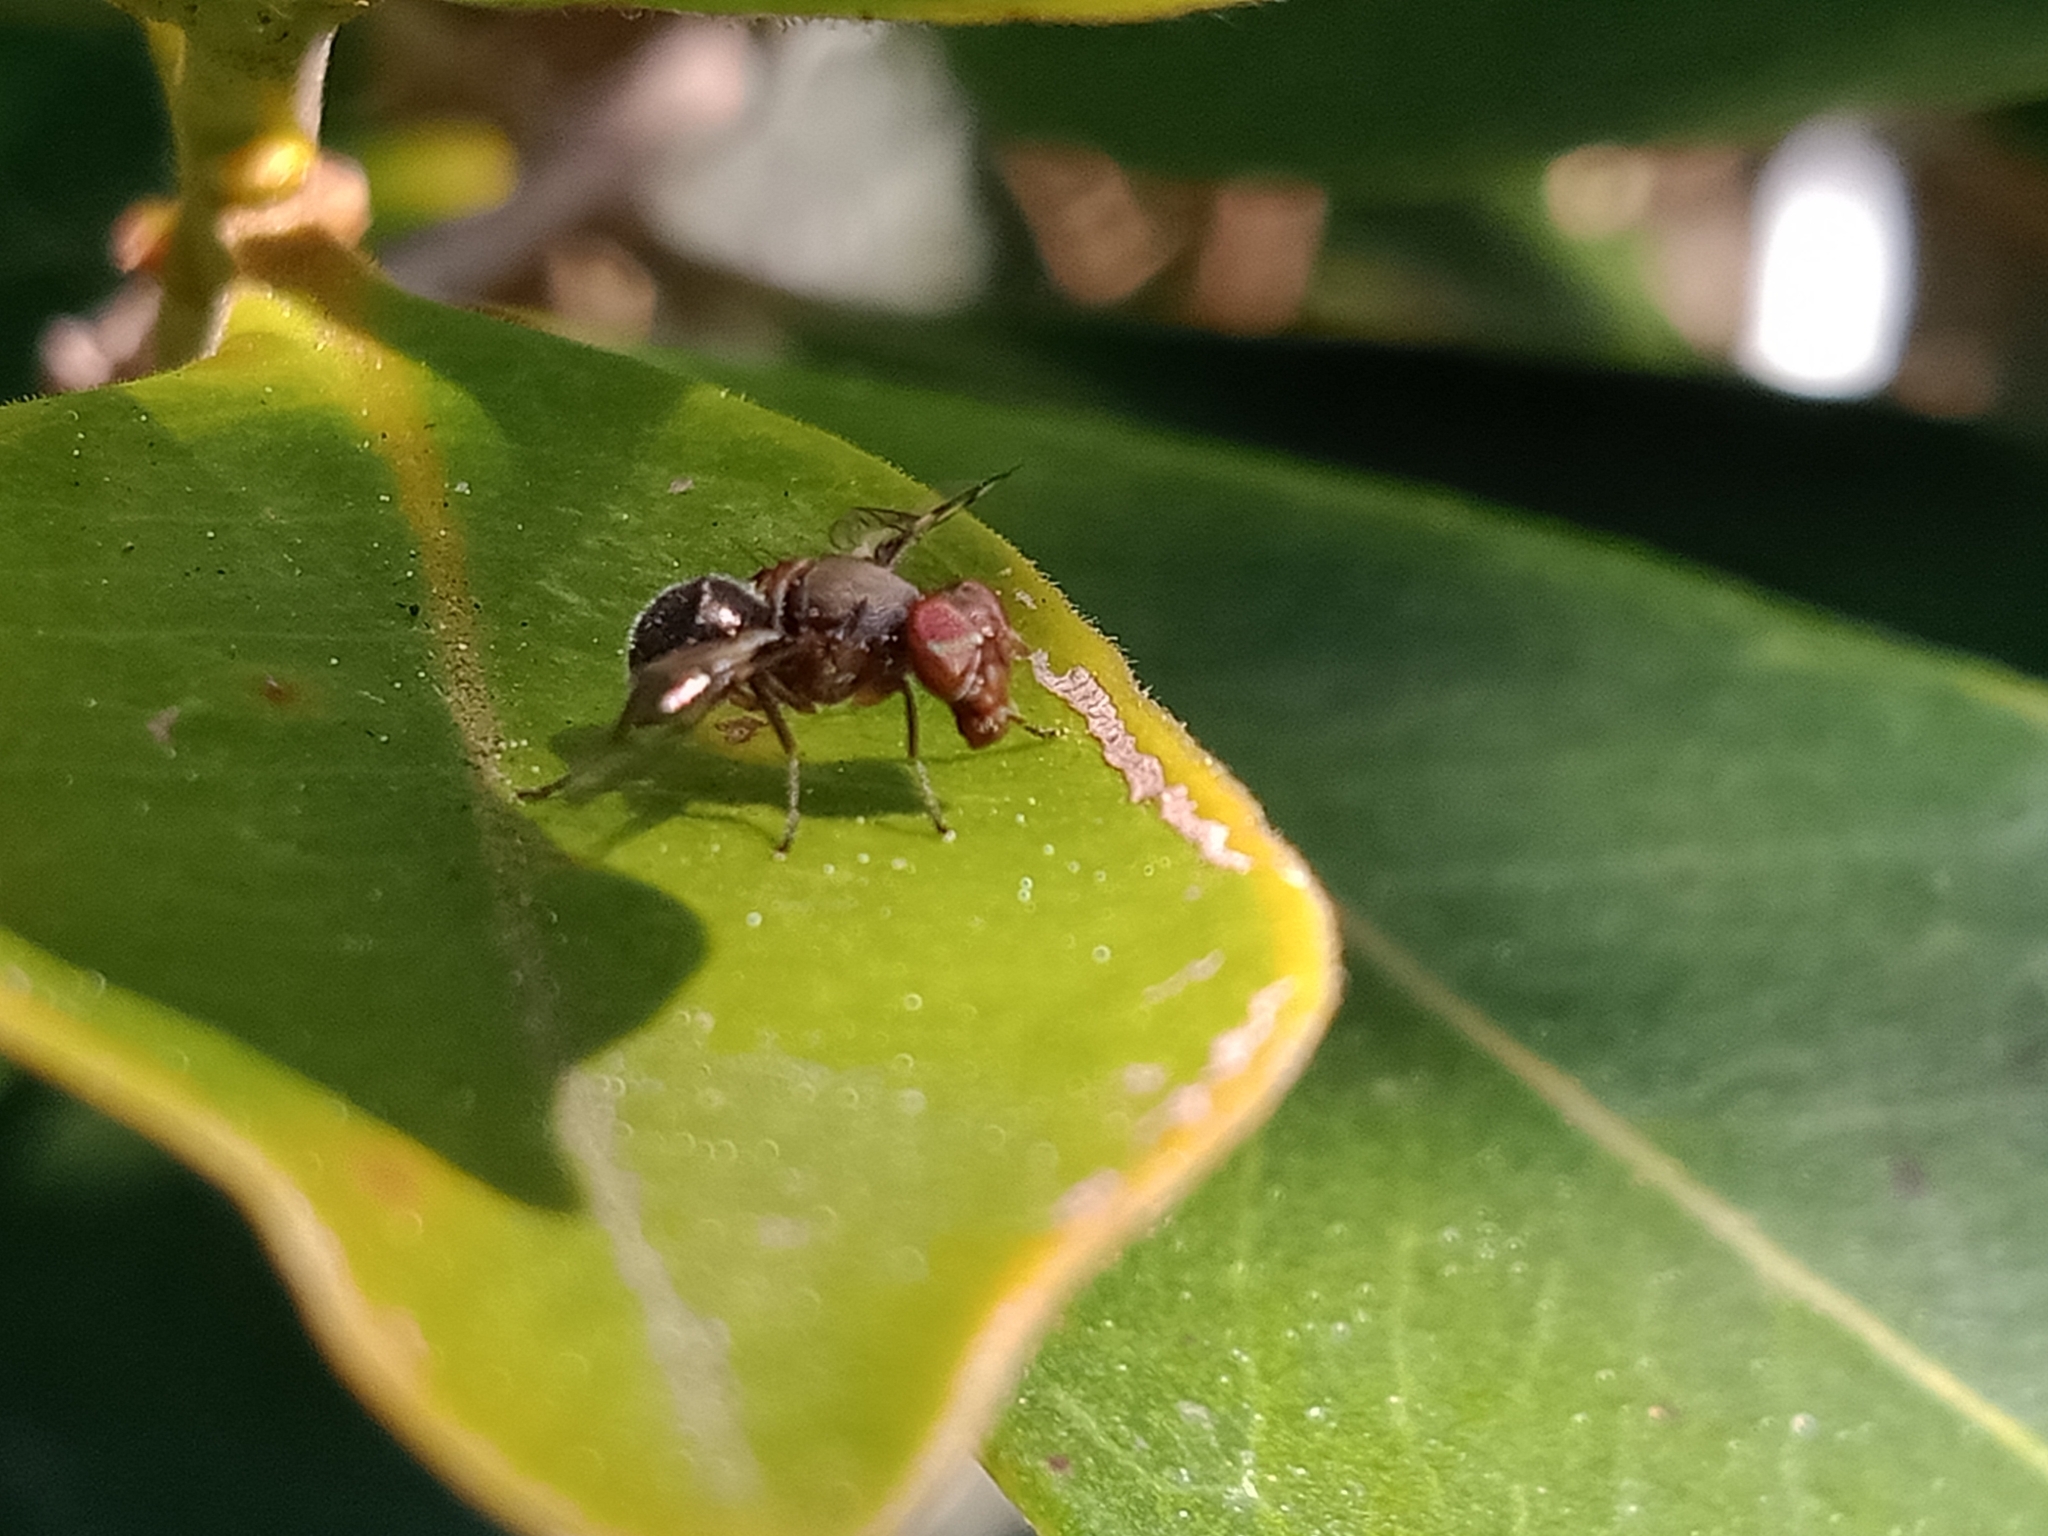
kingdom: Animalia
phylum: Arthropoda
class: Insecta
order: Diptera
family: Platystomatidae
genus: Pogonortalis
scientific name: Pogonortalis doclea
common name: Boatman fly
